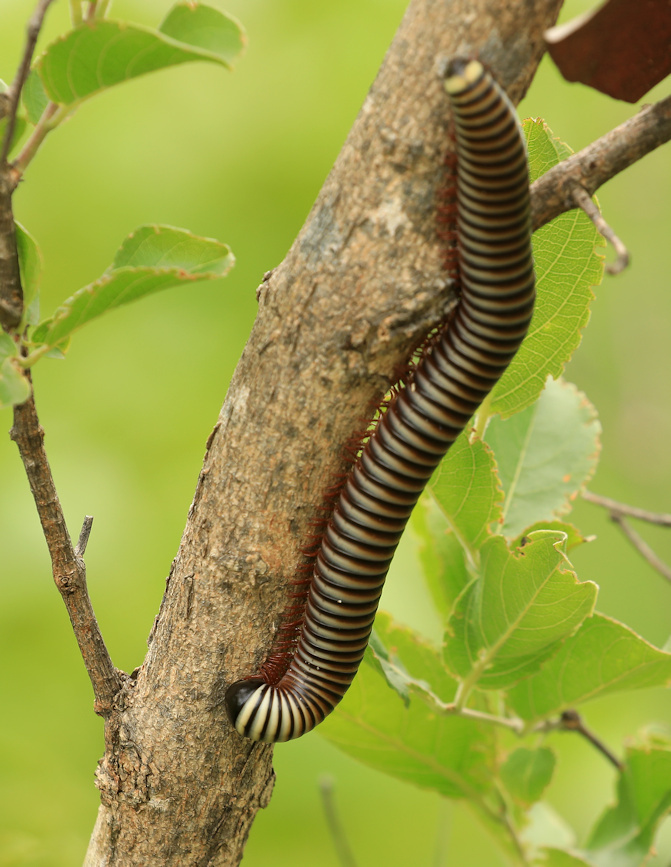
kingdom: Animalia
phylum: Arthropoda
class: Diplopoda
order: Spirostreptida
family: Spirostreptidae
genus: Doratogonus
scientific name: Doratogonus flavifilis
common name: Yellow-banded black millipede
